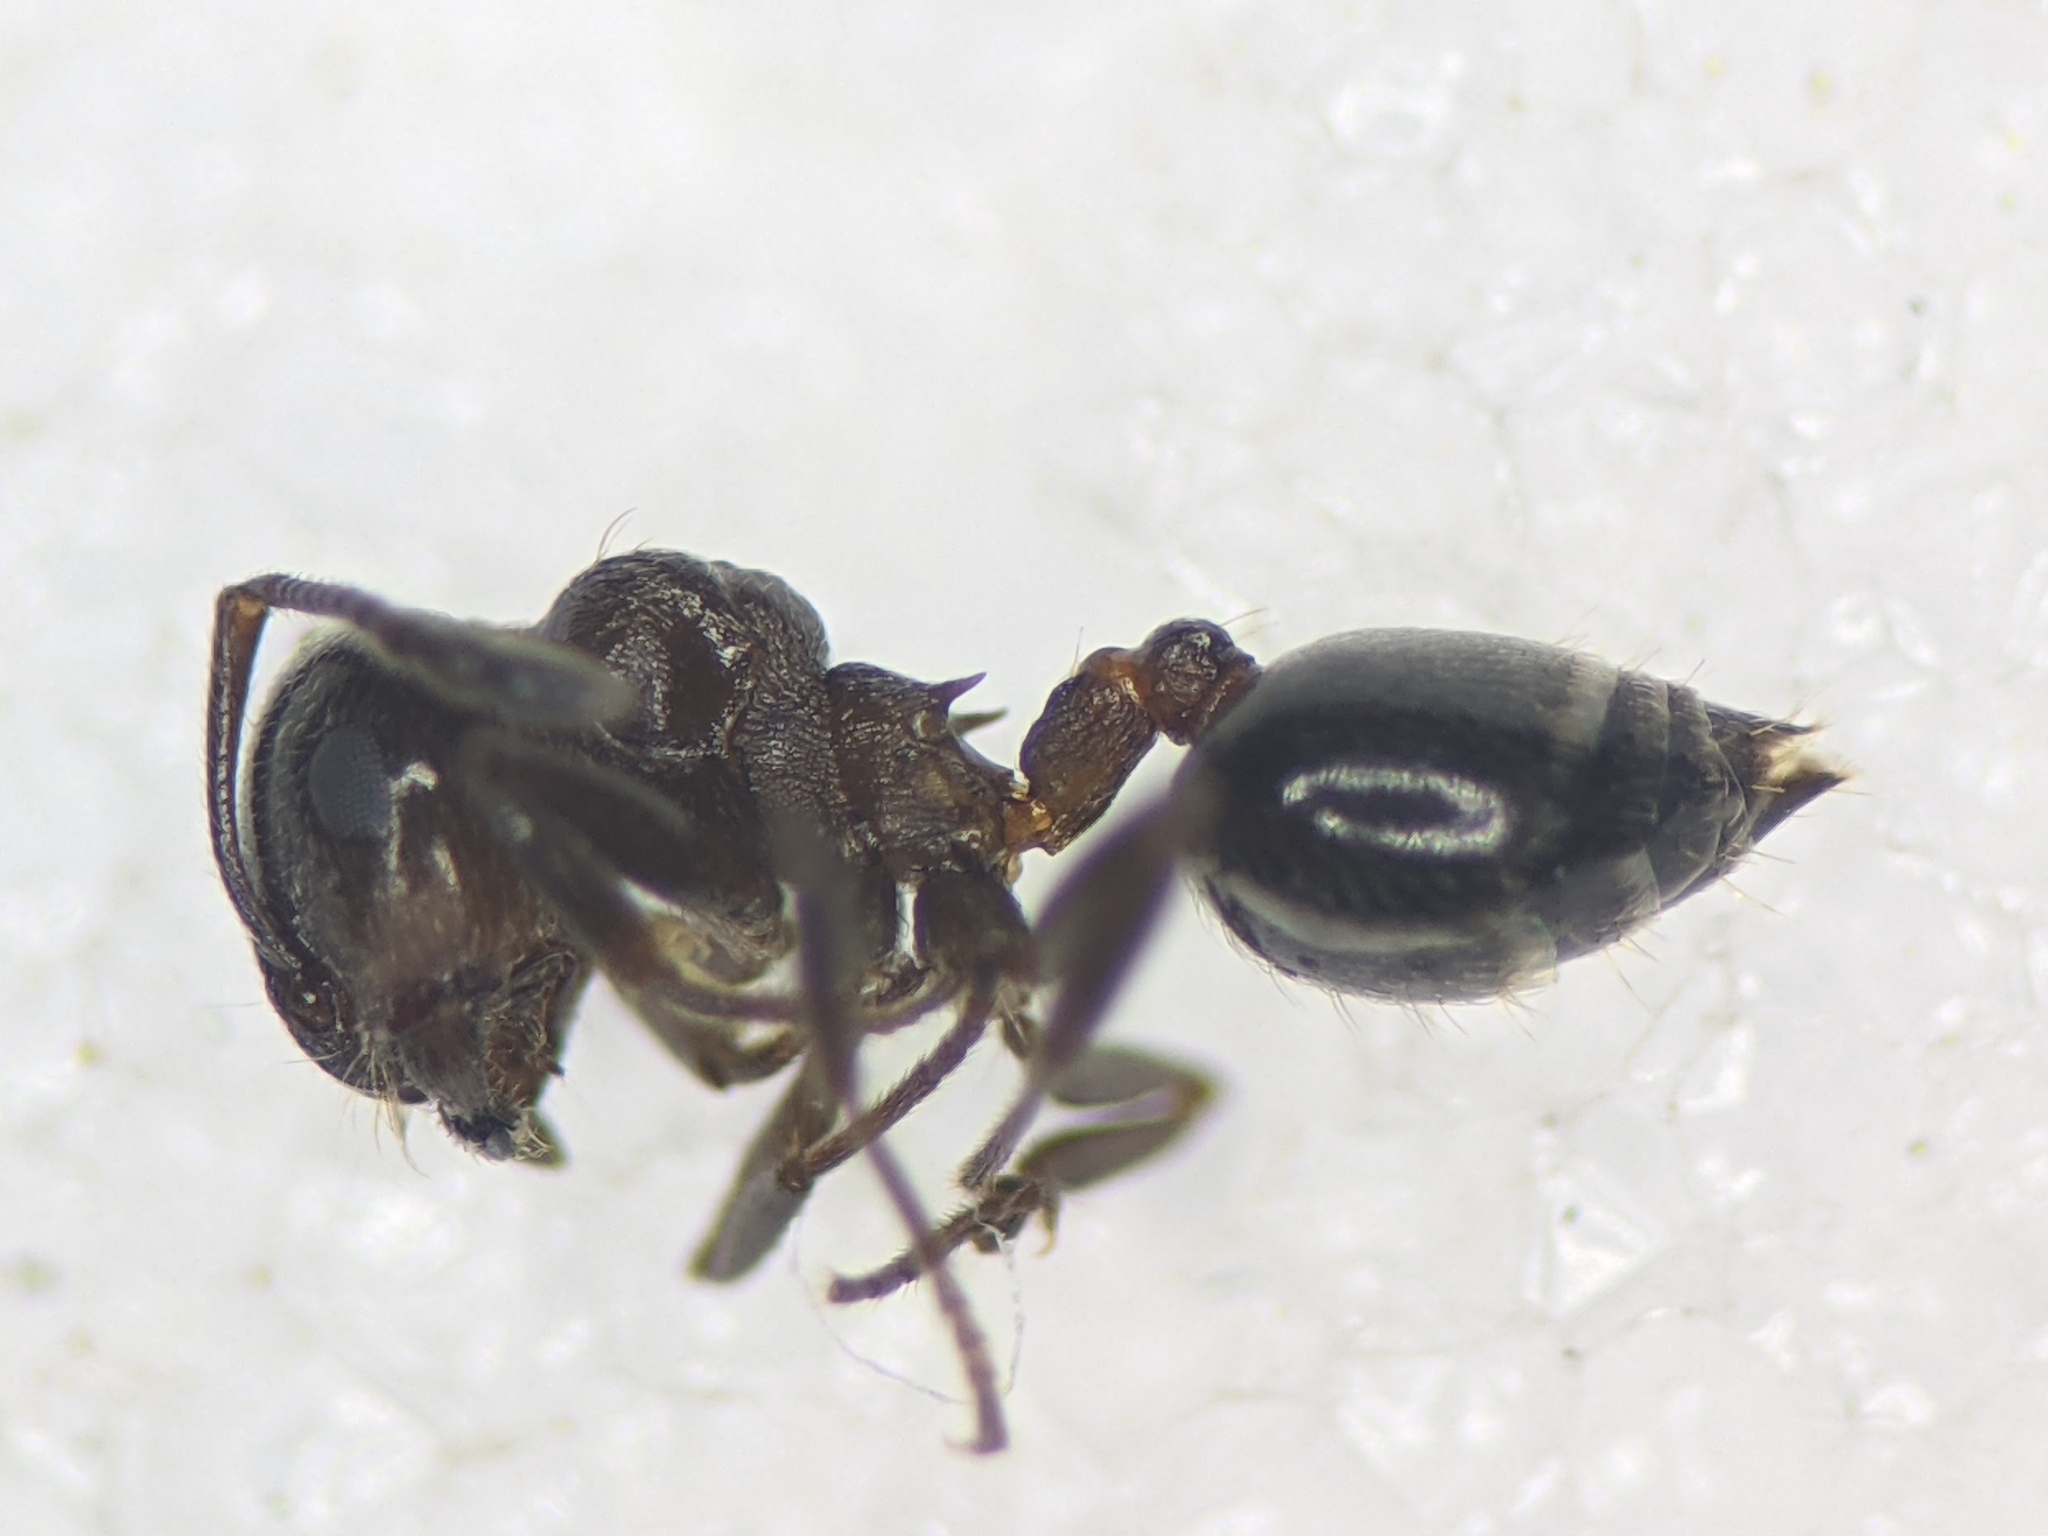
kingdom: Animalia
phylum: Arthropoda
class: Insecta
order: Hymenoptera
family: Formicidae
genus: Crematogaster
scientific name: Crematogaster auberti
